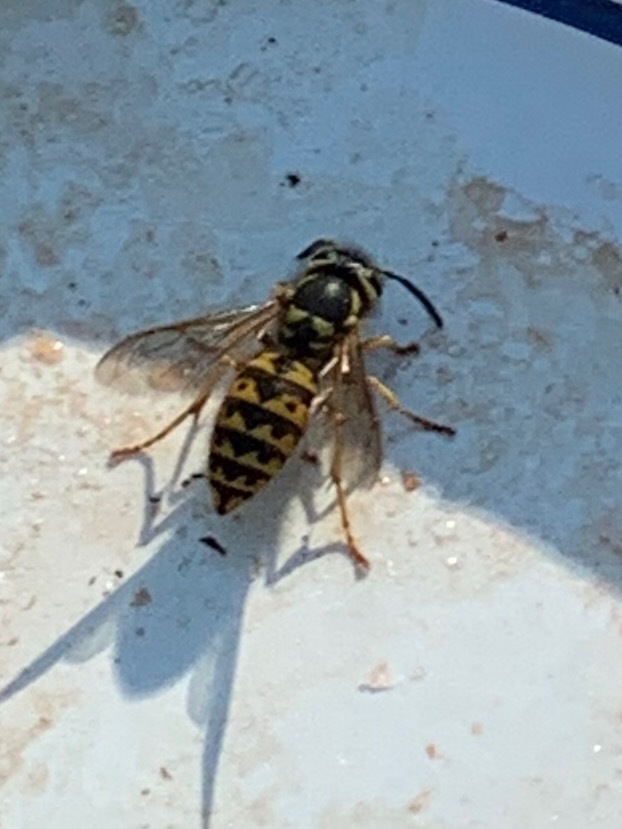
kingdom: Animalia
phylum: Arthropoda
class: Insecta
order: Hymenoptera
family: Vespidae
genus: Vespula
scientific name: Vespula pensylvanica
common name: Western yellowjacket
